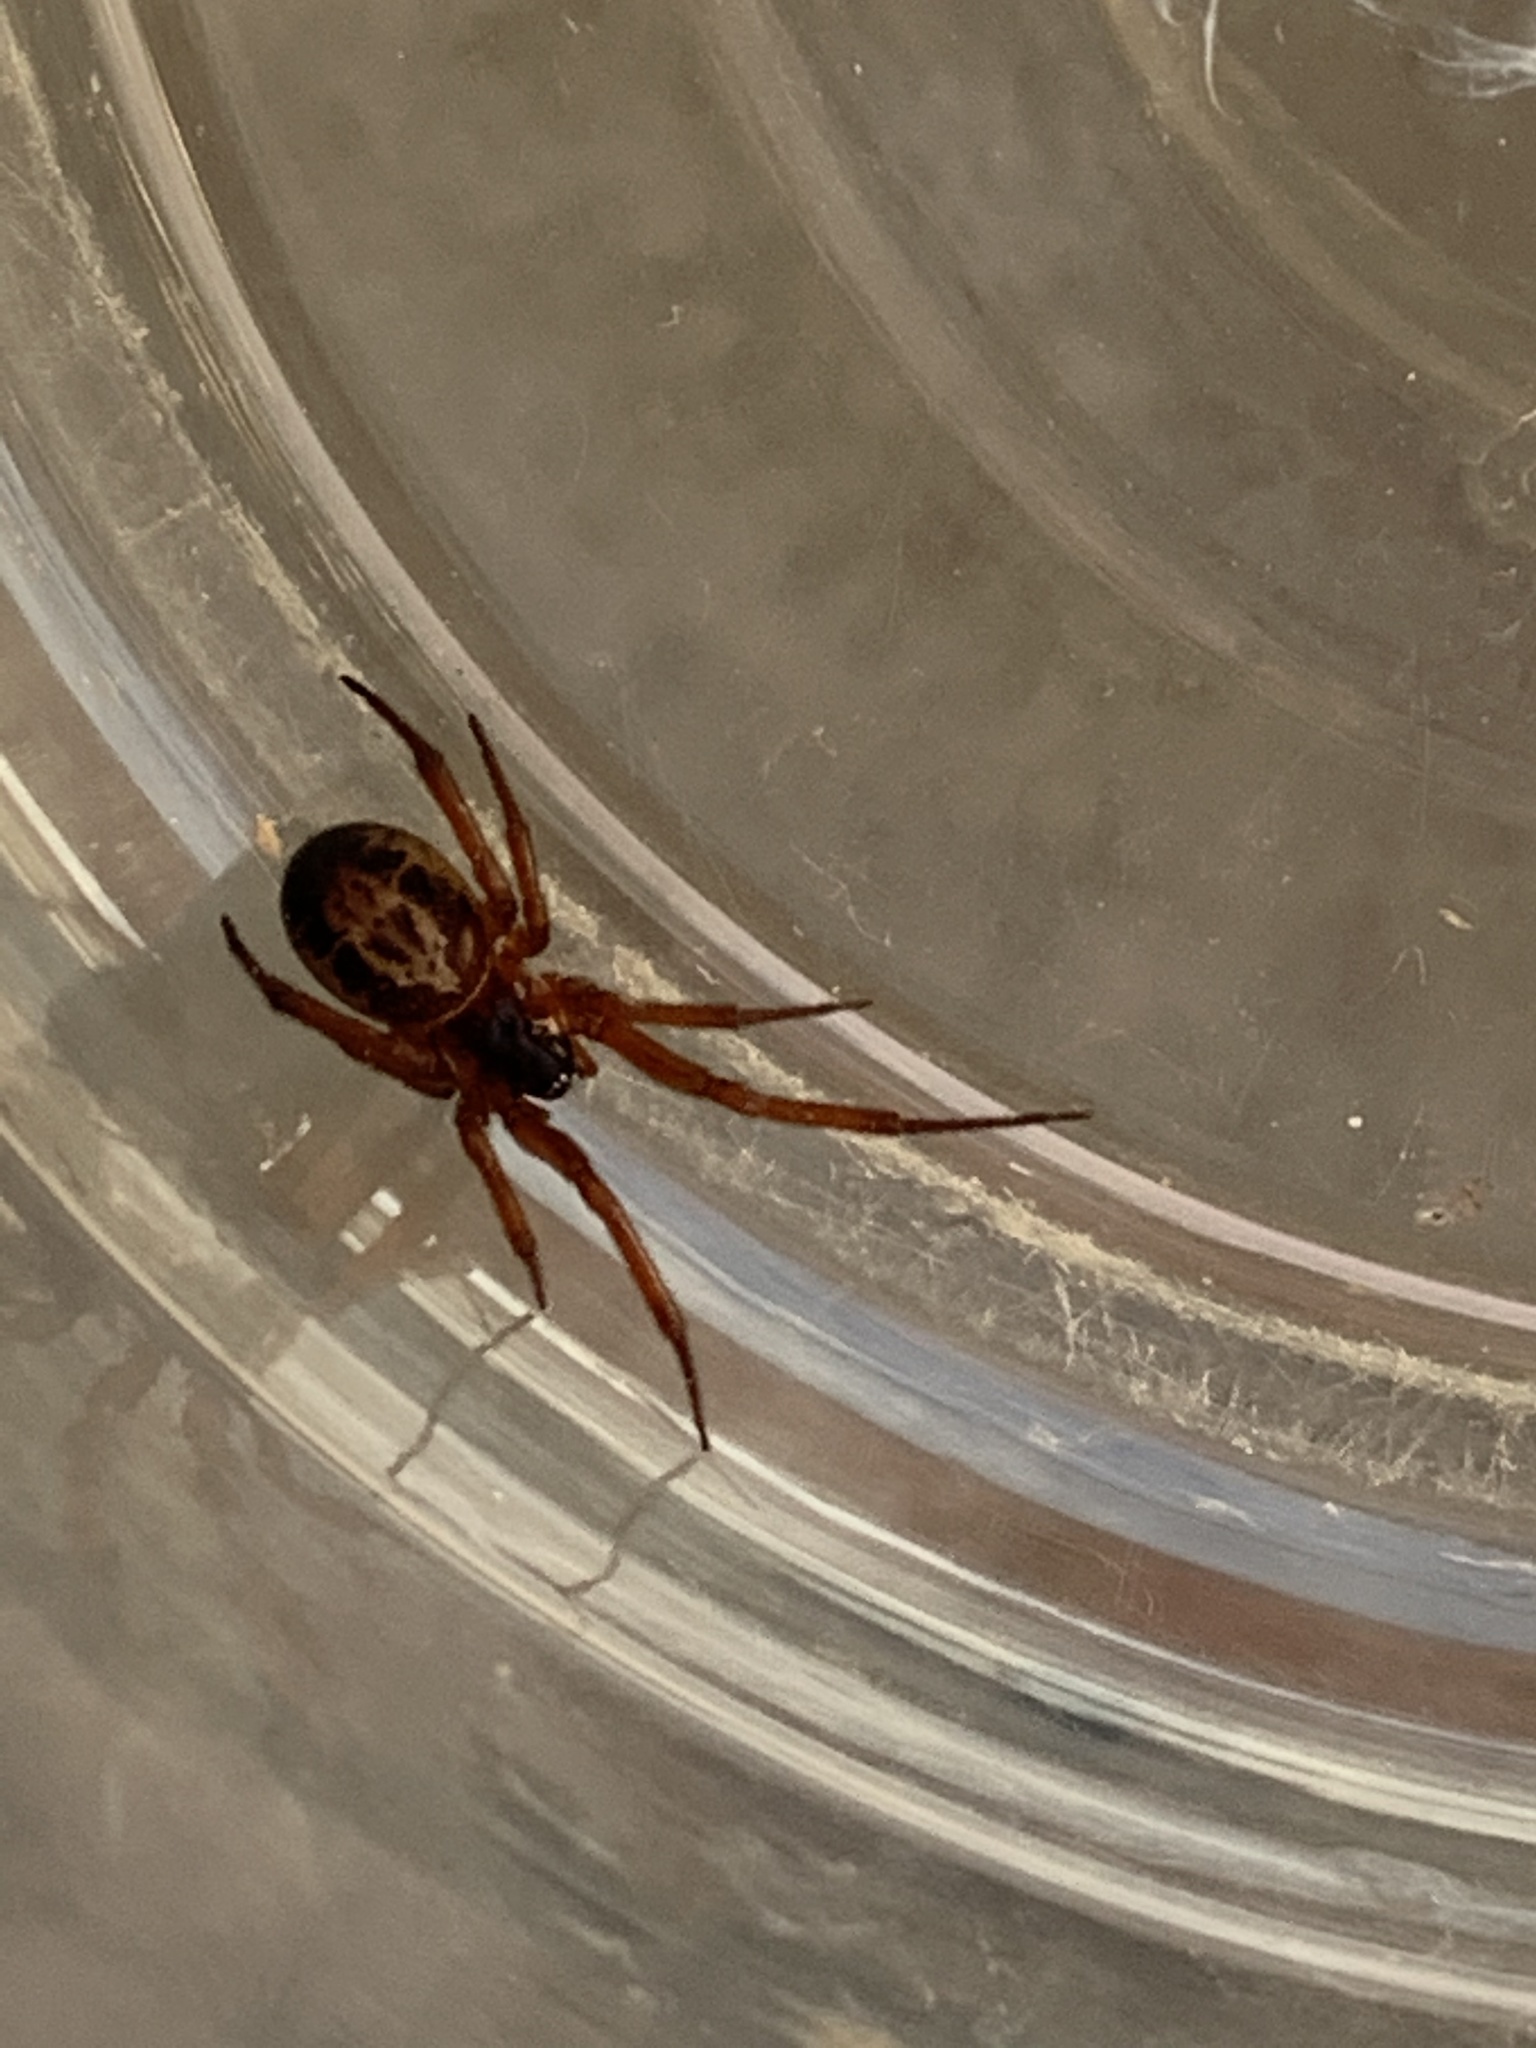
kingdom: Animalia
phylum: Arthropoda
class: Arachnida
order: Araneae
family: Theridiidae
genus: Steatoda
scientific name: Steatoda nobilis
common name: Cobweb weaver
